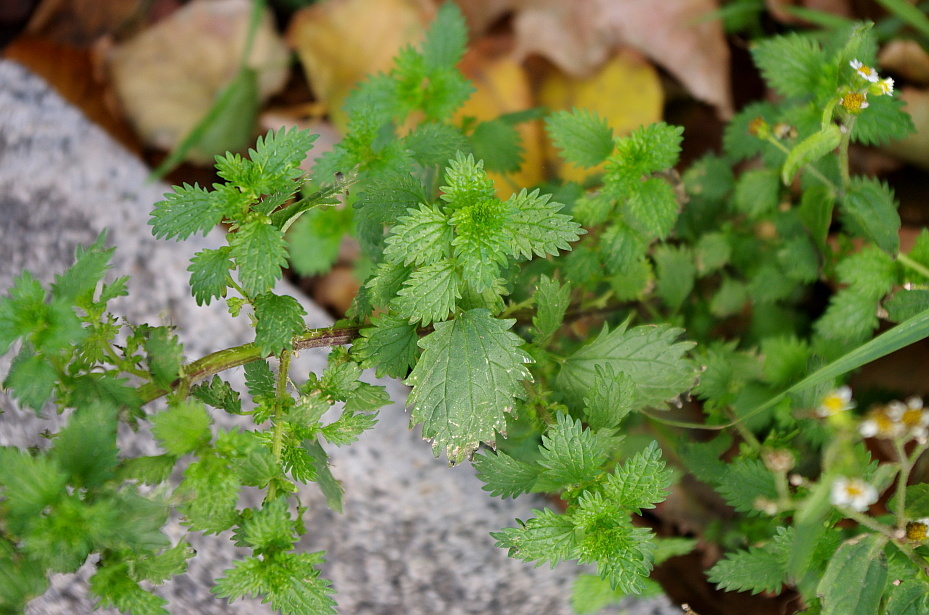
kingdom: Plantae
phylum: Tracheophyta
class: Magnoliopsida
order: Rosales
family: Urticaceae
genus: Urtica
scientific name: Urtica urens
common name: Dwarf nettle
